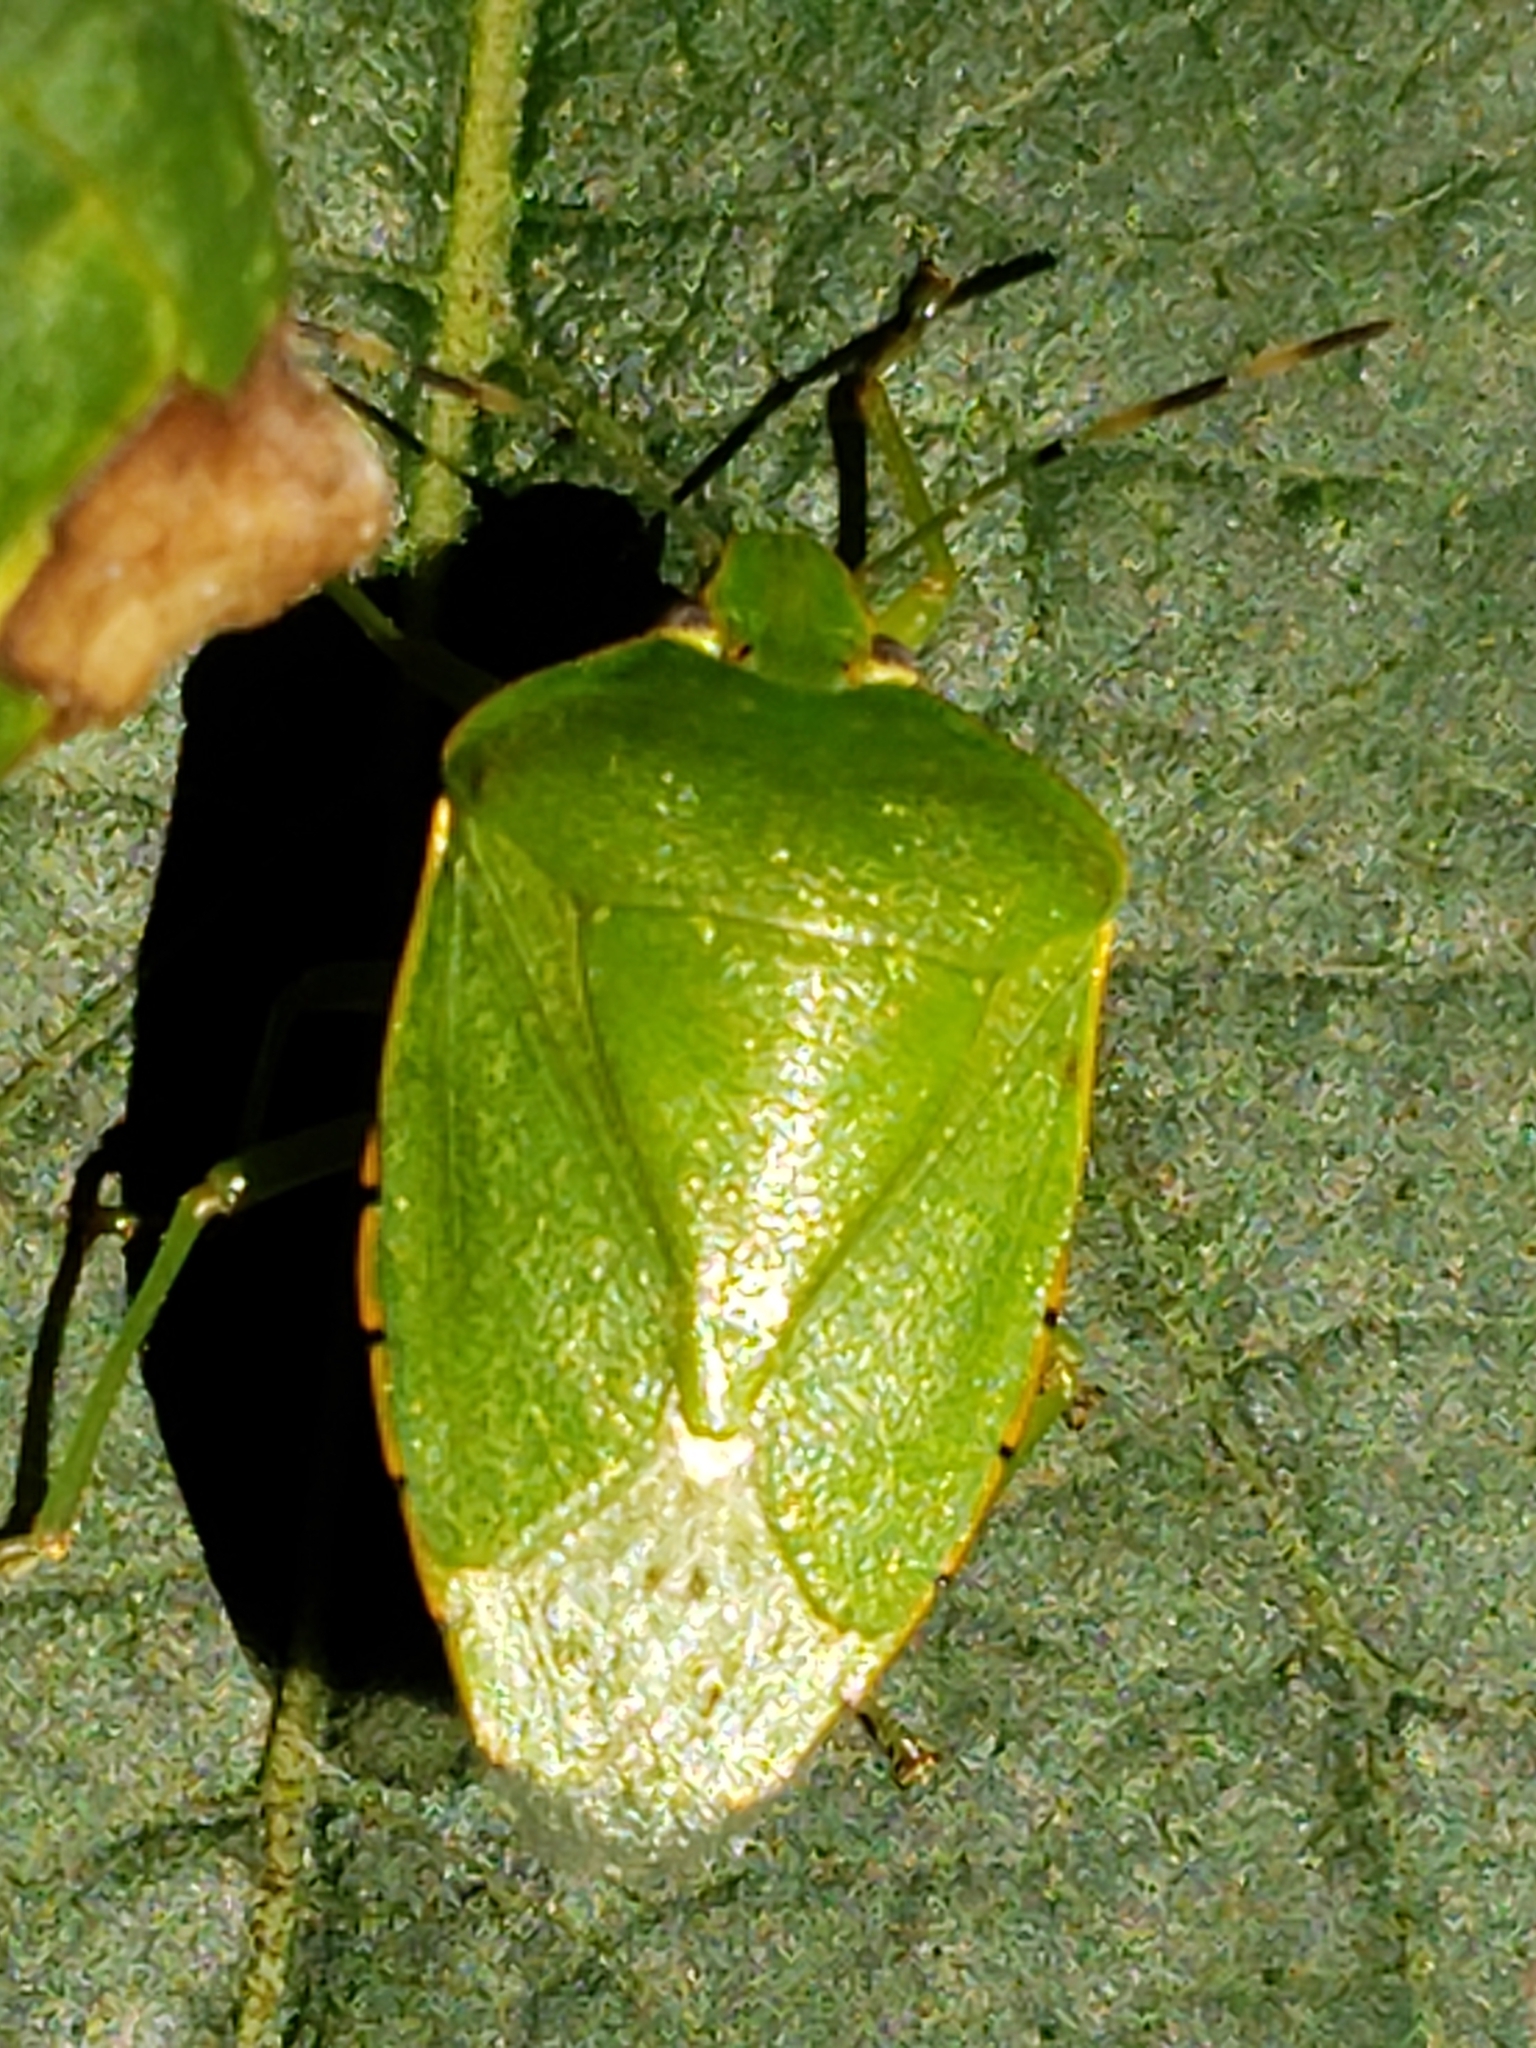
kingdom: Animalia
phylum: Arthropoda
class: Insecta
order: Hemiptera
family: Pentatomidae
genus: Chinavia
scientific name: Chinavia hilaris
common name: Green stink bug
